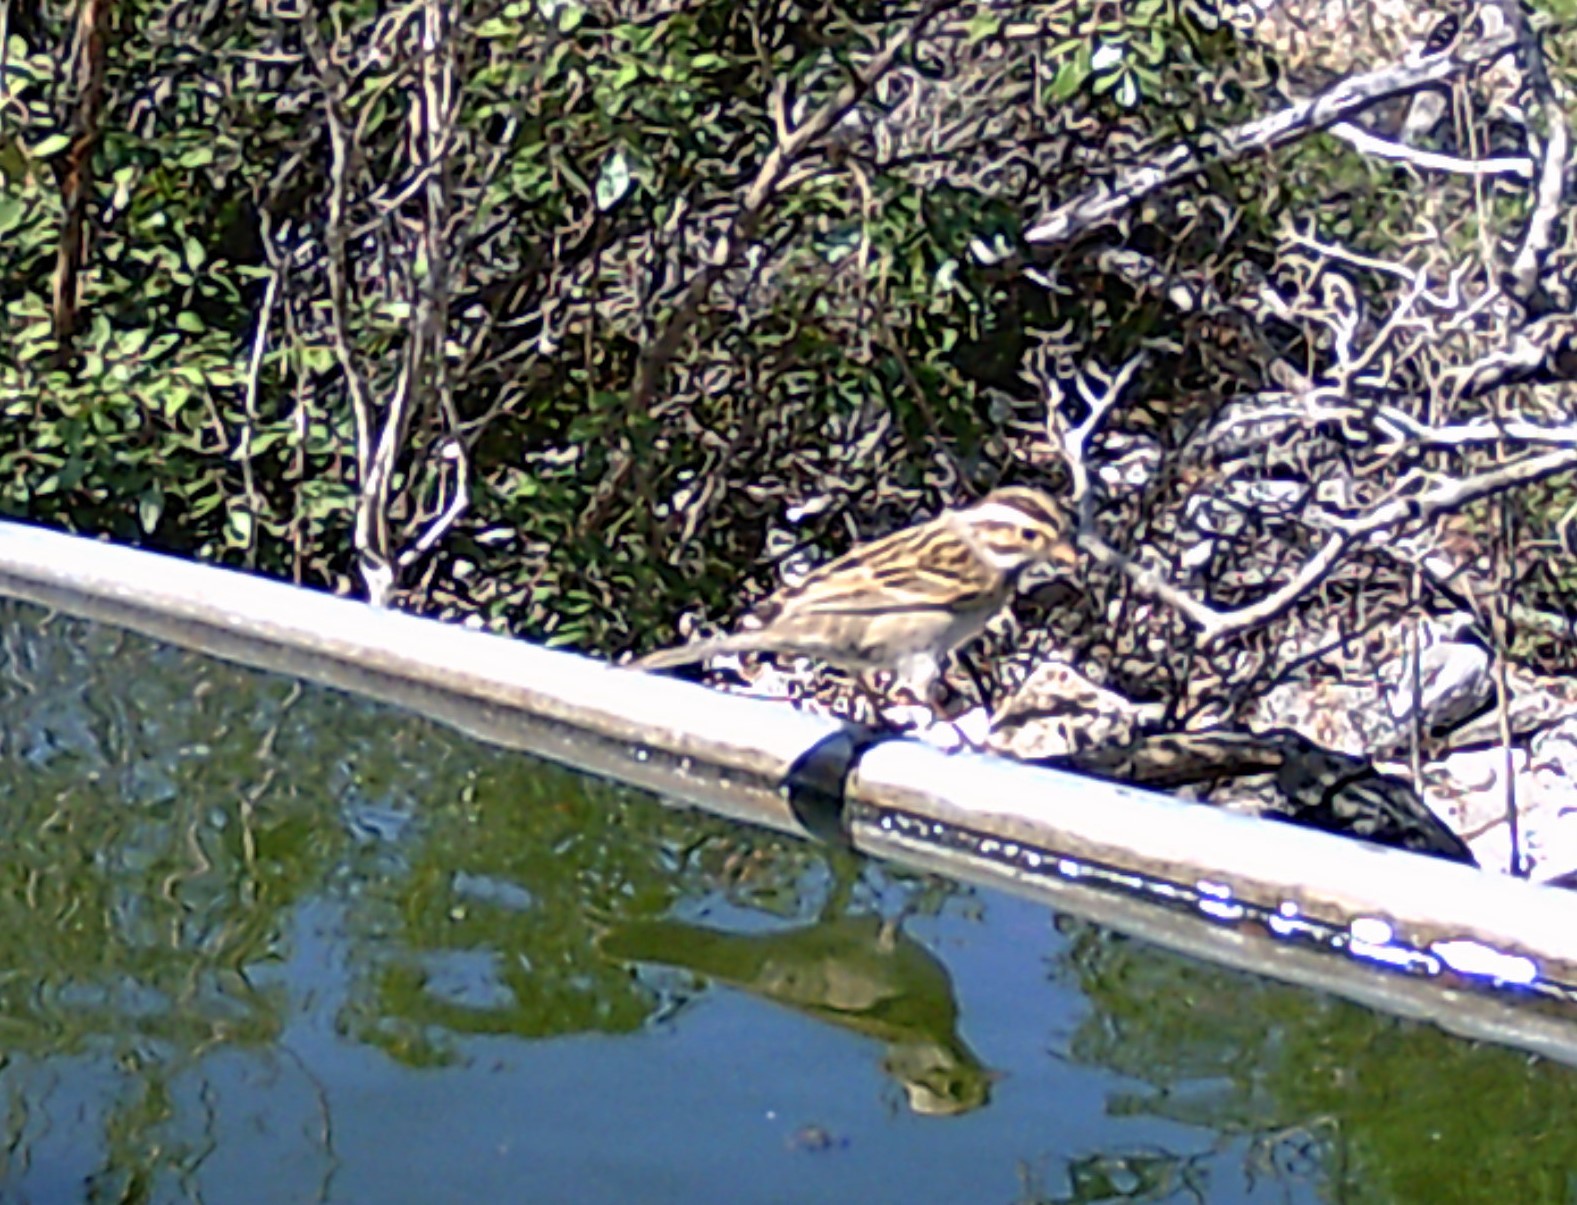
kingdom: Animalia
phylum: Chordata
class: Aves
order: Passeriformes
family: Passerellidae
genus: Spizella
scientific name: Spizella pallida
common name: Clay-colored sparrow
